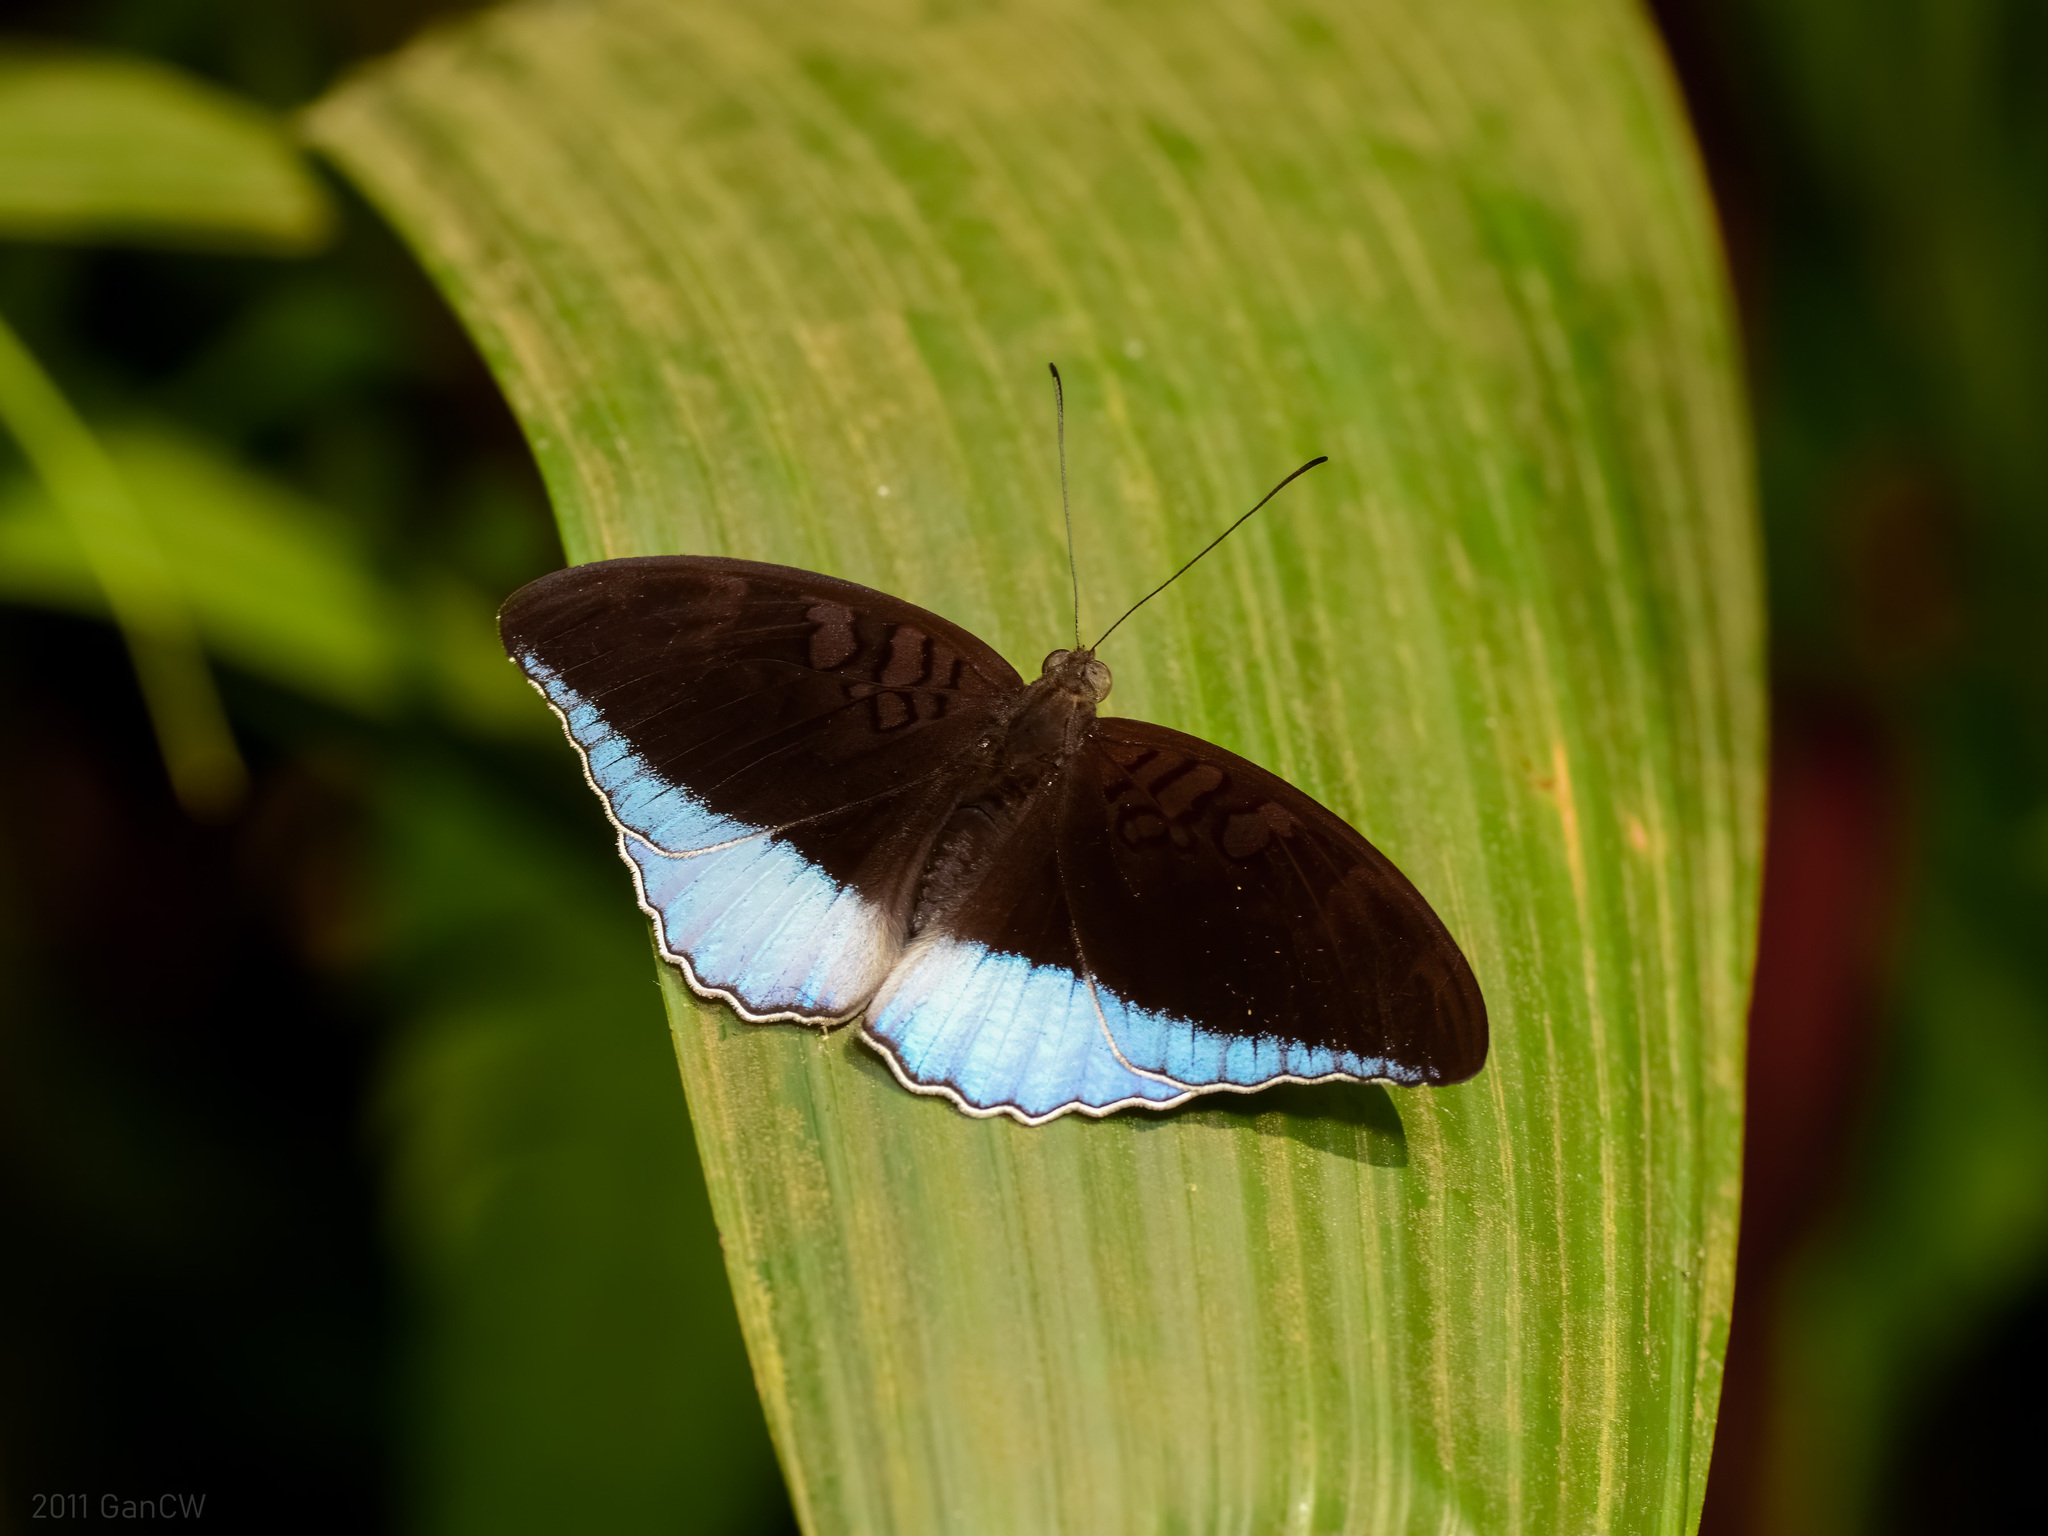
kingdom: Animalia
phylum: Arthropoda
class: Insecta
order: Lepidoptera
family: Nymphalidae
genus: Tanaecia
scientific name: Tanaecia iapis
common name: Horsfield's baron
